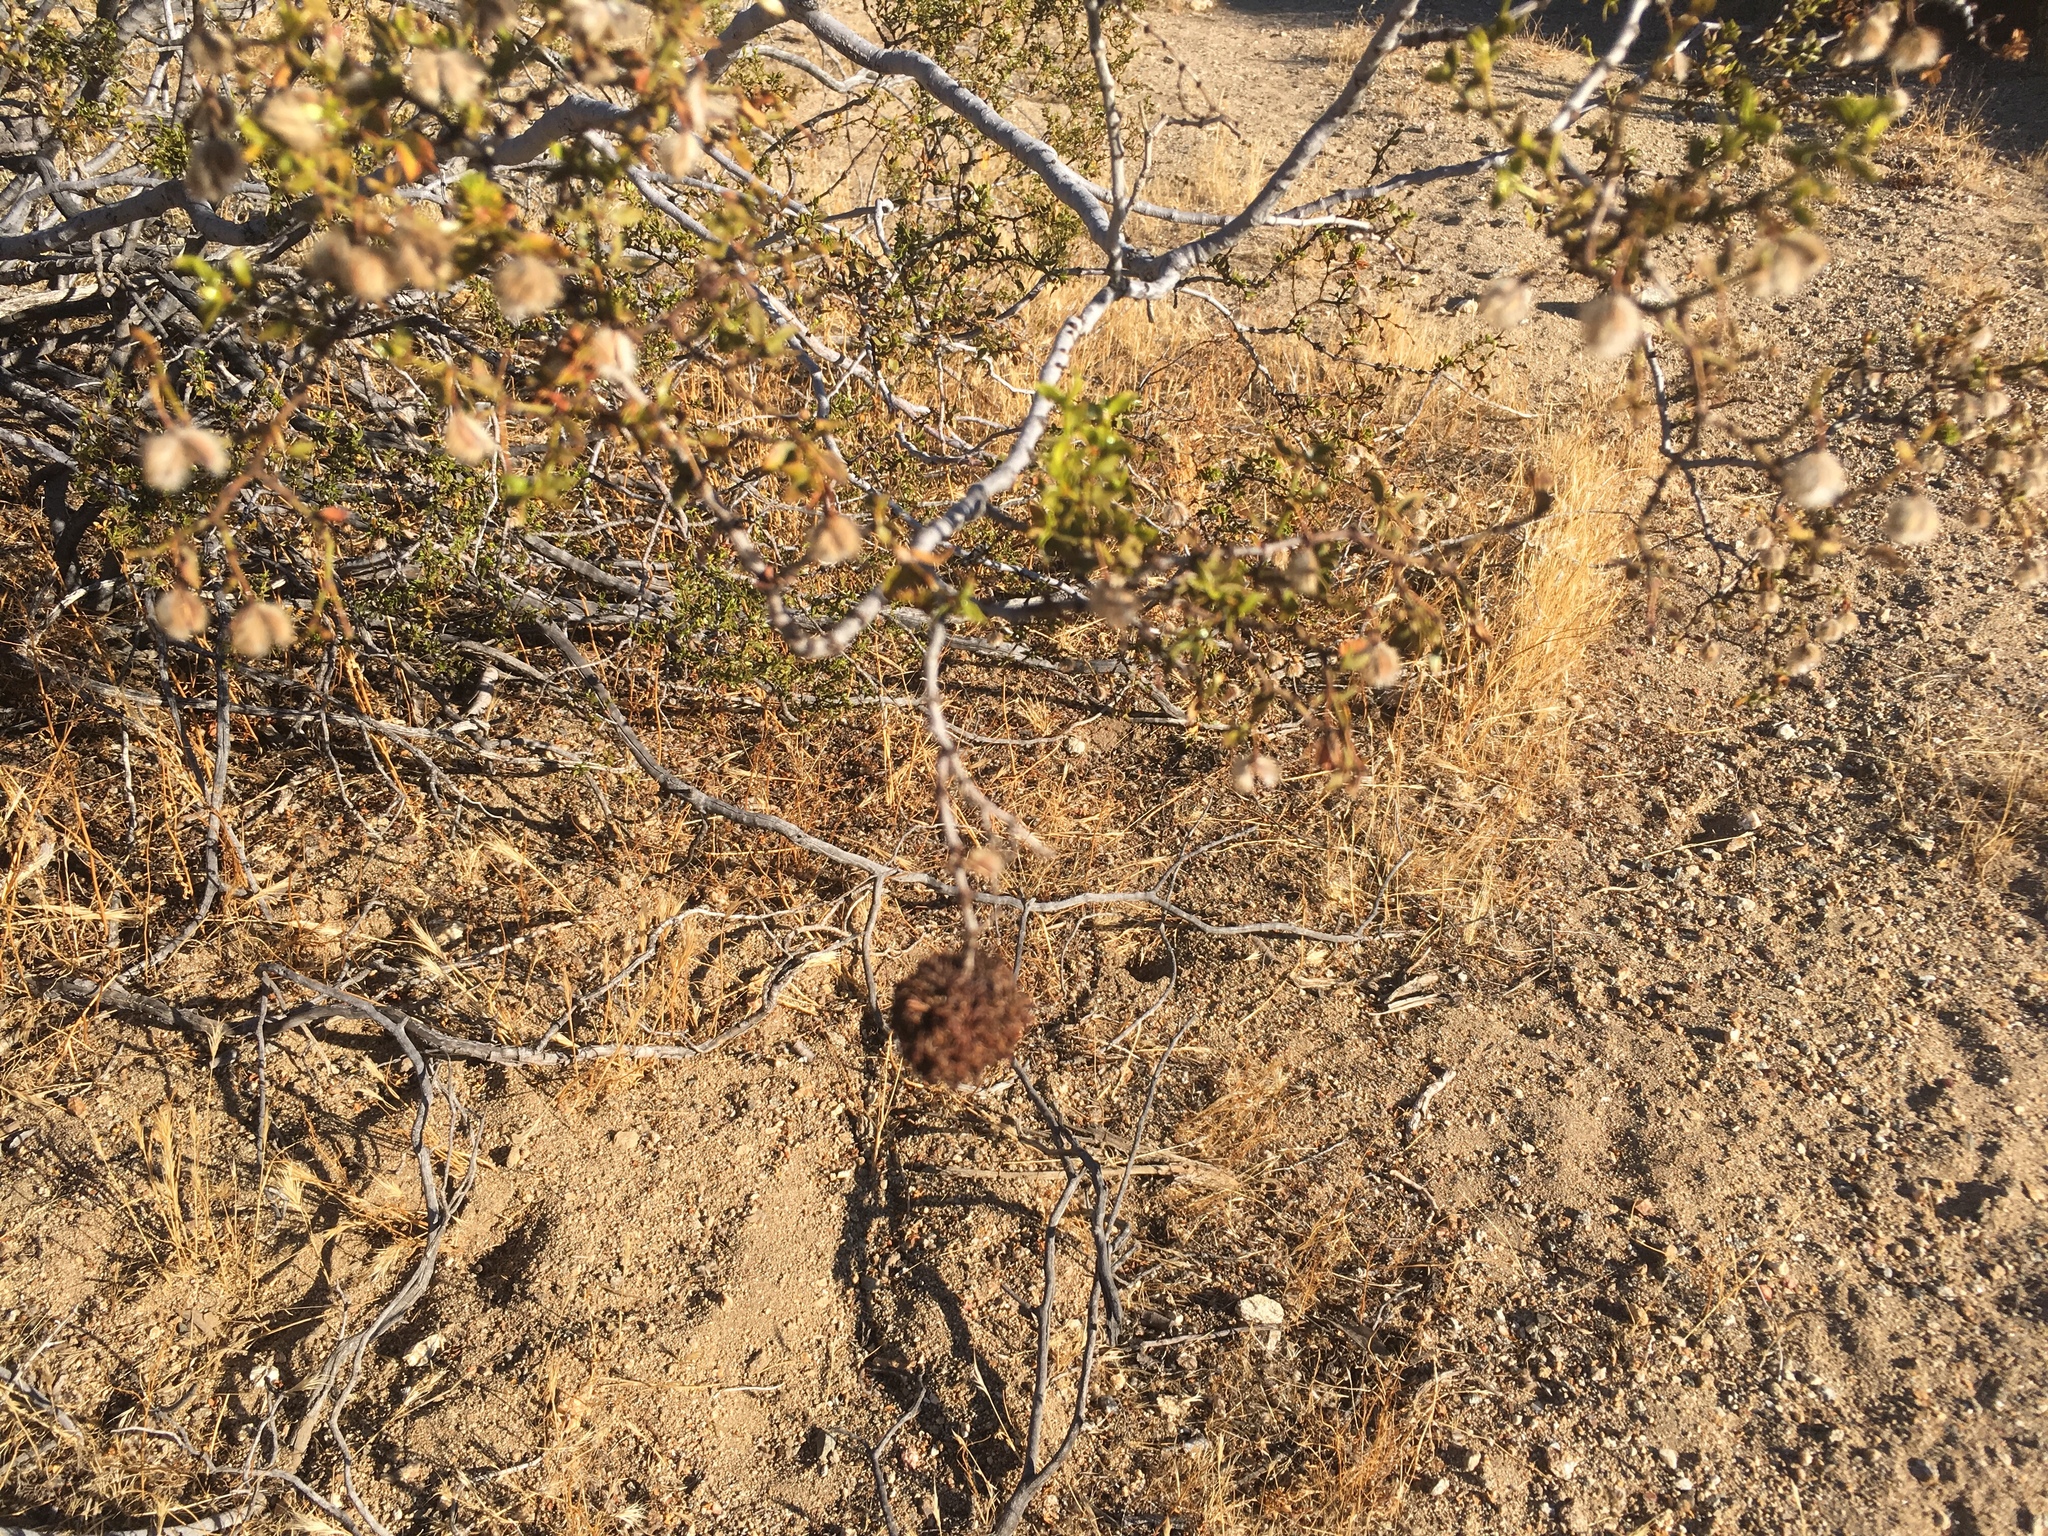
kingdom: Animalia
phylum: Arthropoda
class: Insecta
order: Diptera
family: Cecidomyiidae
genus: Asphondylia
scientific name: Asphondylia auripila
